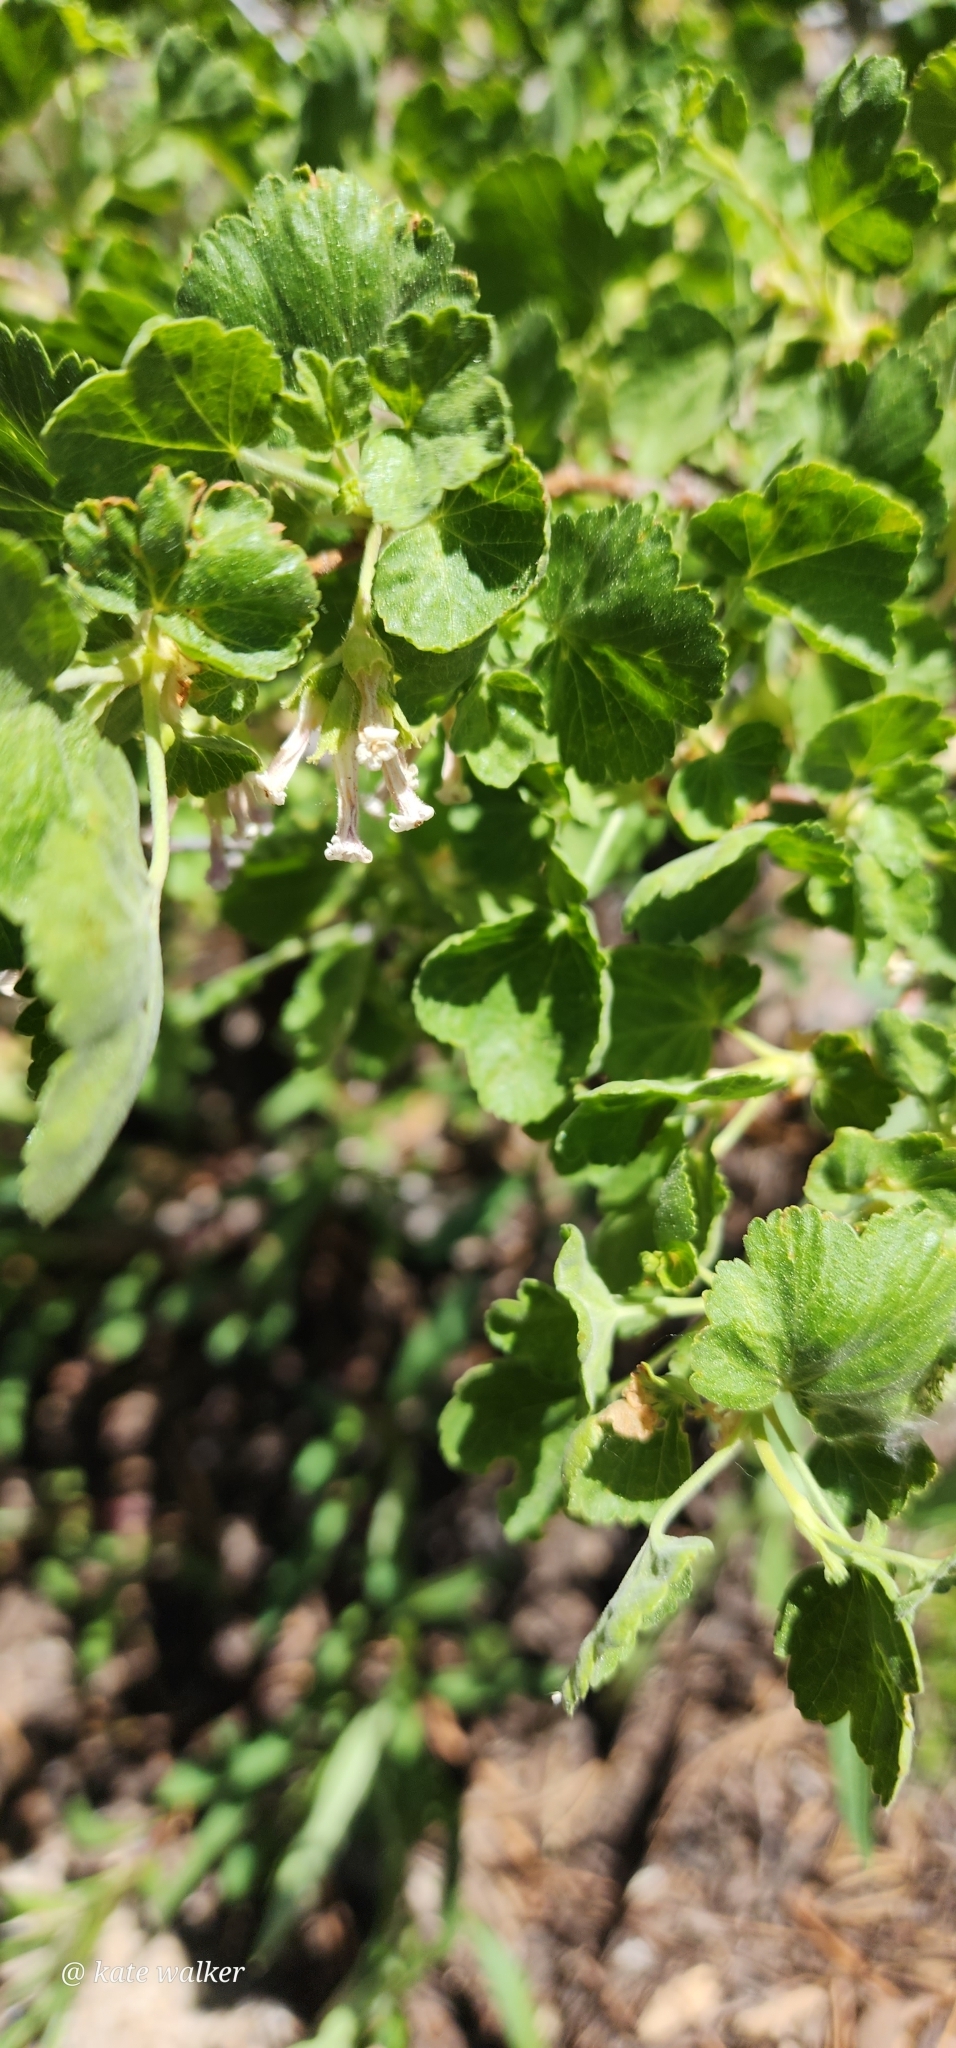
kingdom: Plantae
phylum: Tracheophyta
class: Magnoliopsida
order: Saxifragales
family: Grossulariaceae
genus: Ribes
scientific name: Ribes cereum
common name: Wax currant
